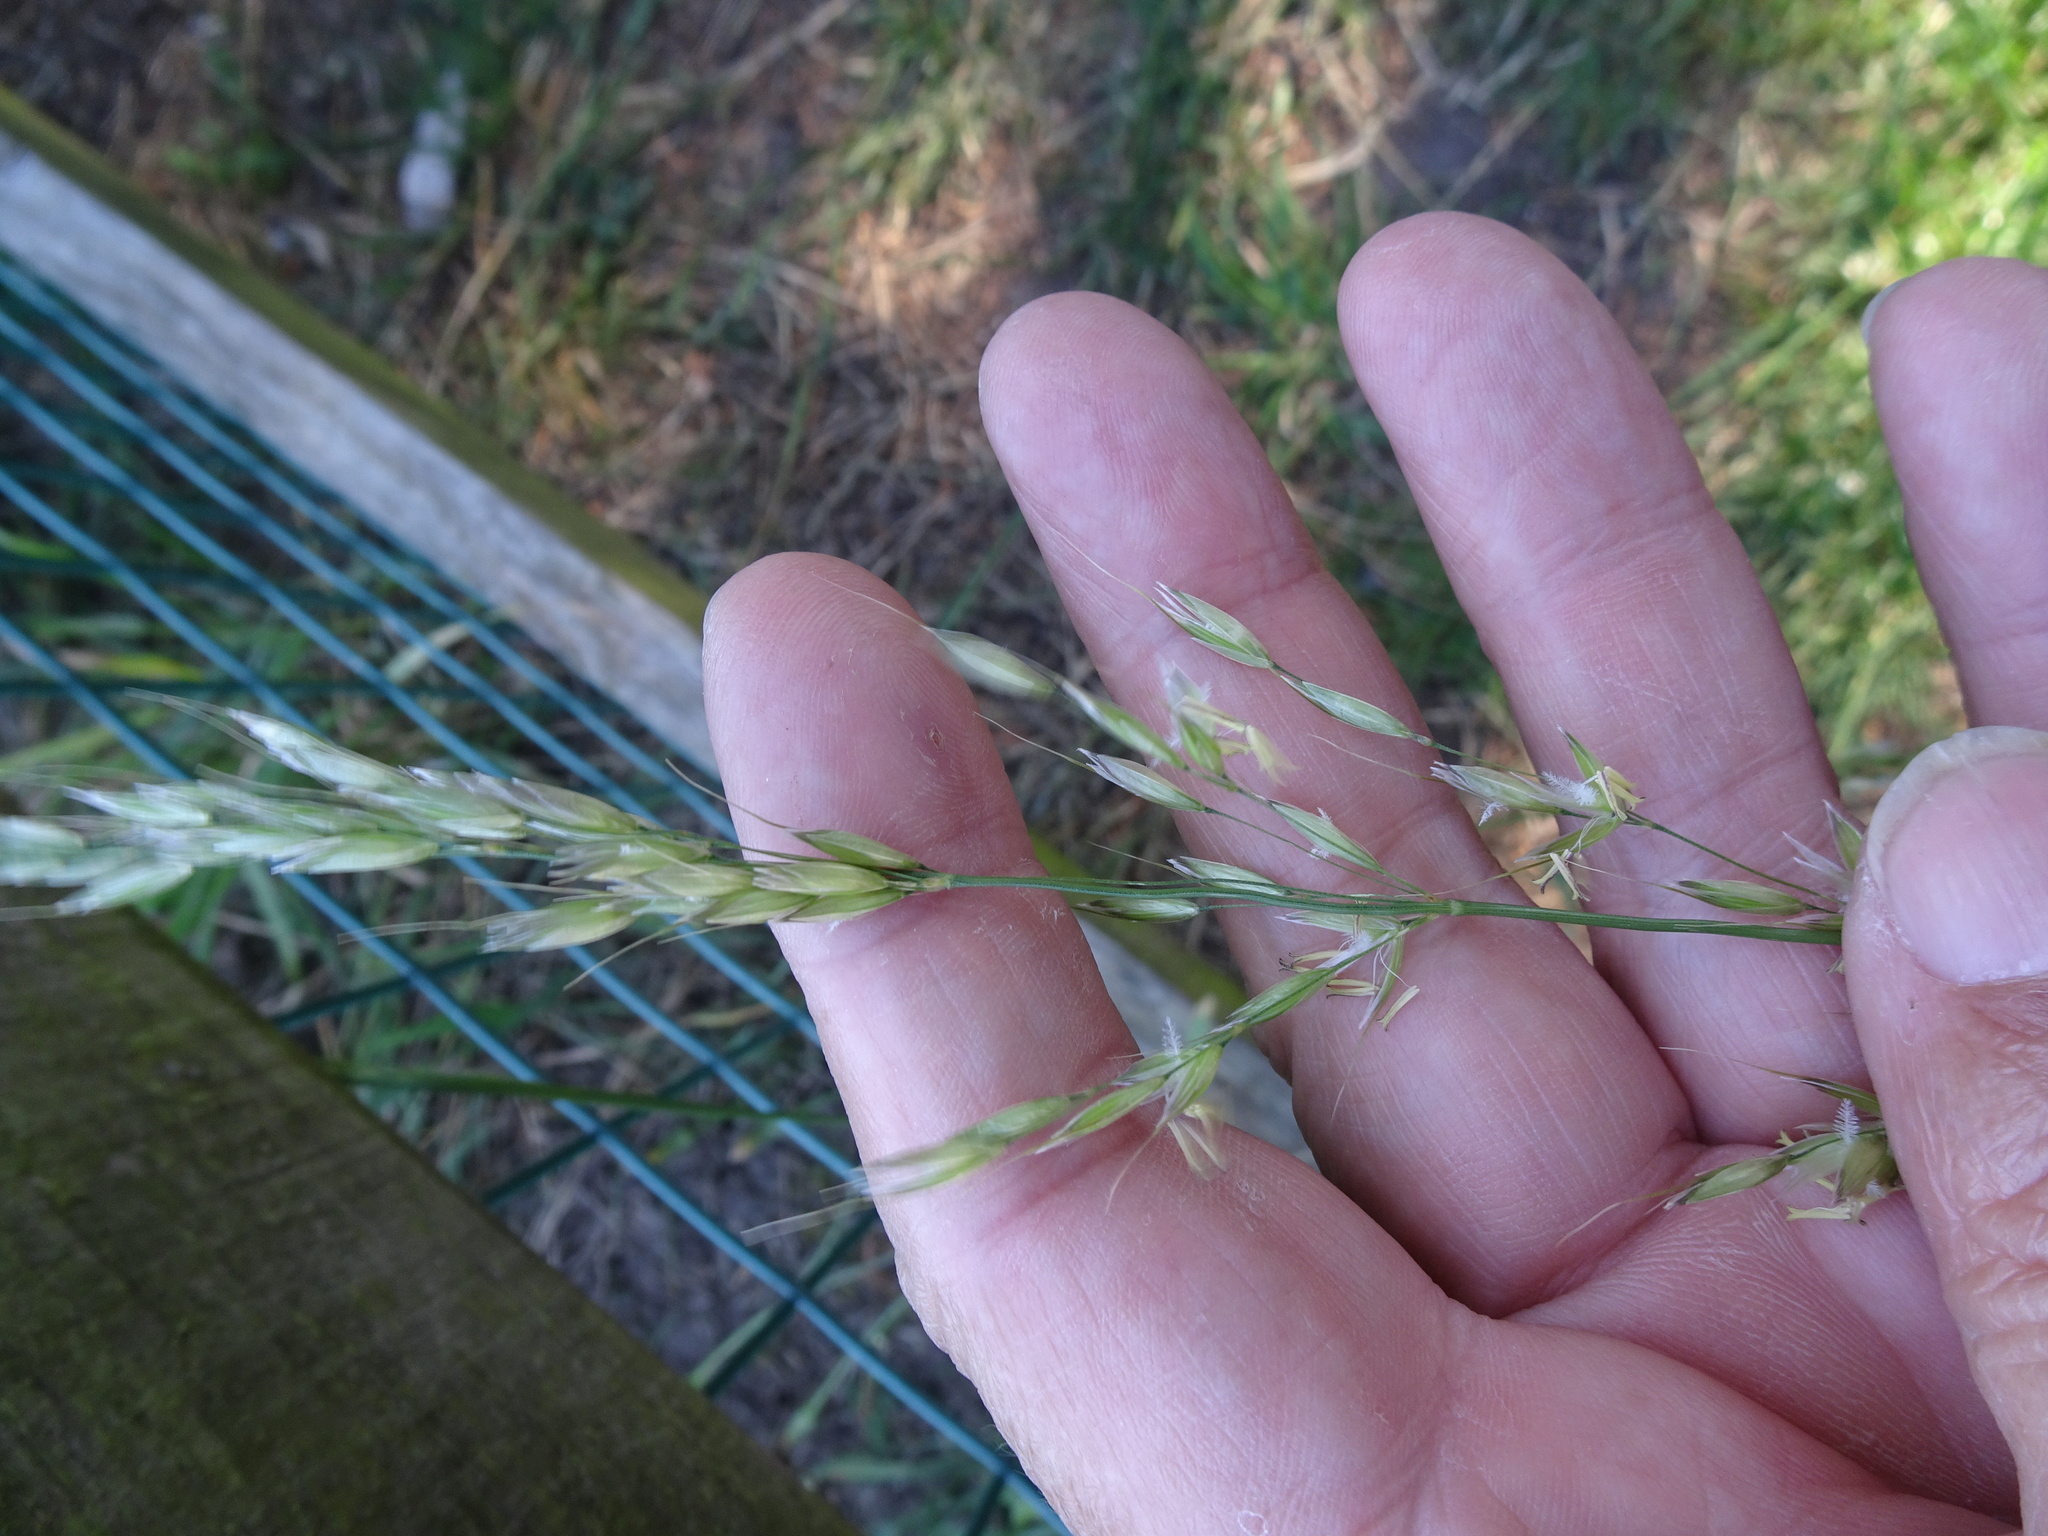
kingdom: Plantae
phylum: Tracheophyta
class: Liliopsida
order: Poales
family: Poaceae
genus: Arrhenatherum
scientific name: Arrhenatherum elatius
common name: Tall oatgrass
